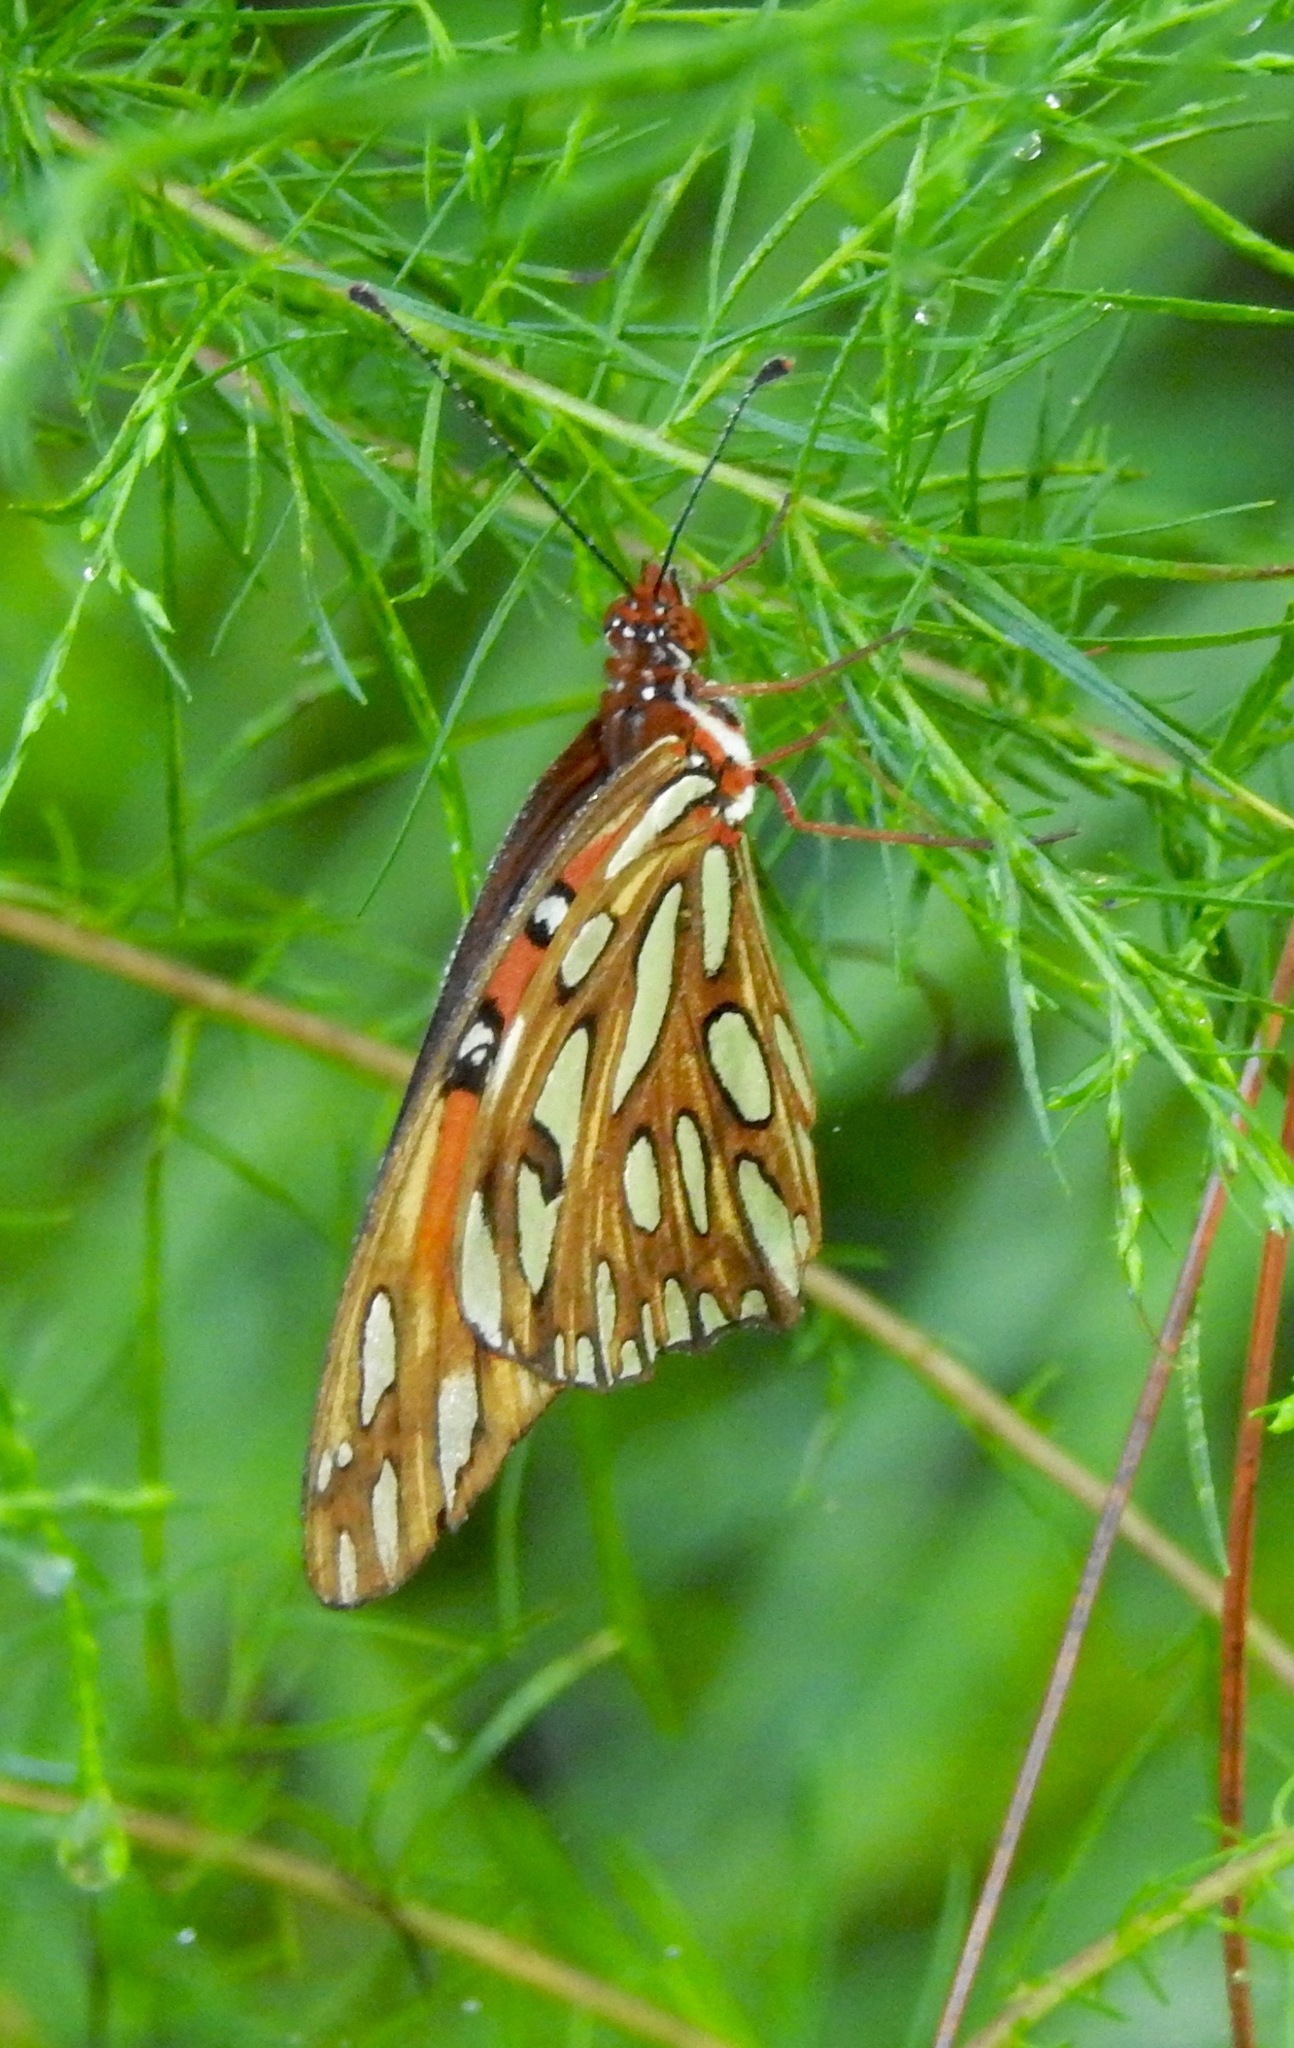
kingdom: Animalia
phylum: Arthropoda
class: Insecta
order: Lepidoptera
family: Nymphalidae
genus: Dione
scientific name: Dione vanillae
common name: Gulf fritillary
